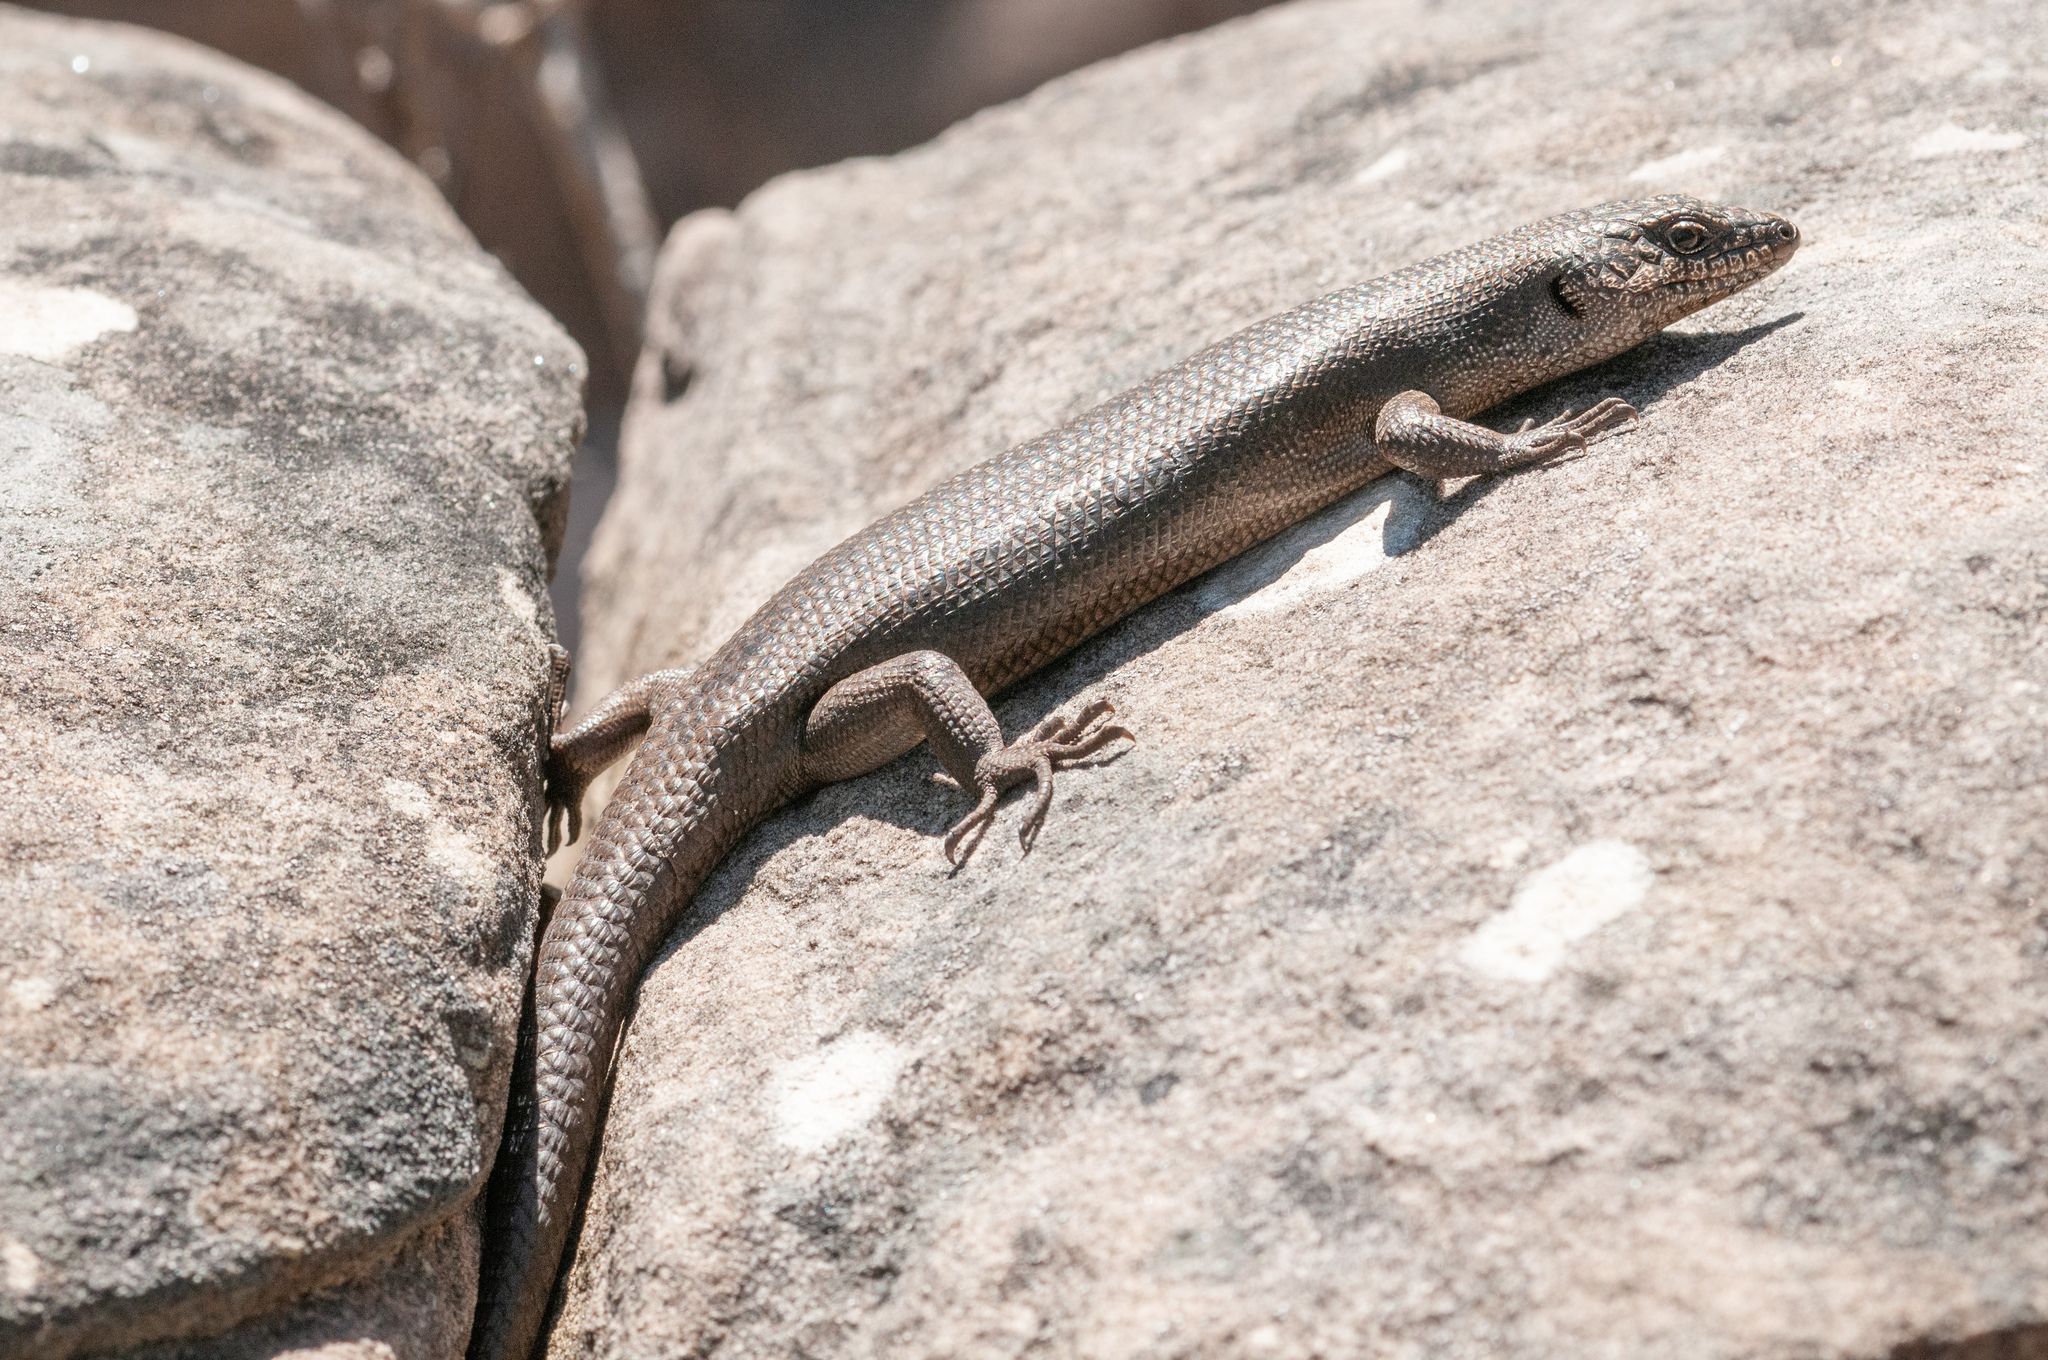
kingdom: Animalia
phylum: Chordata
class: Squamata
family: Scincidae
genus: Egernia
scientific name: Egernia saxatilis
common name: Black crevice-skink
